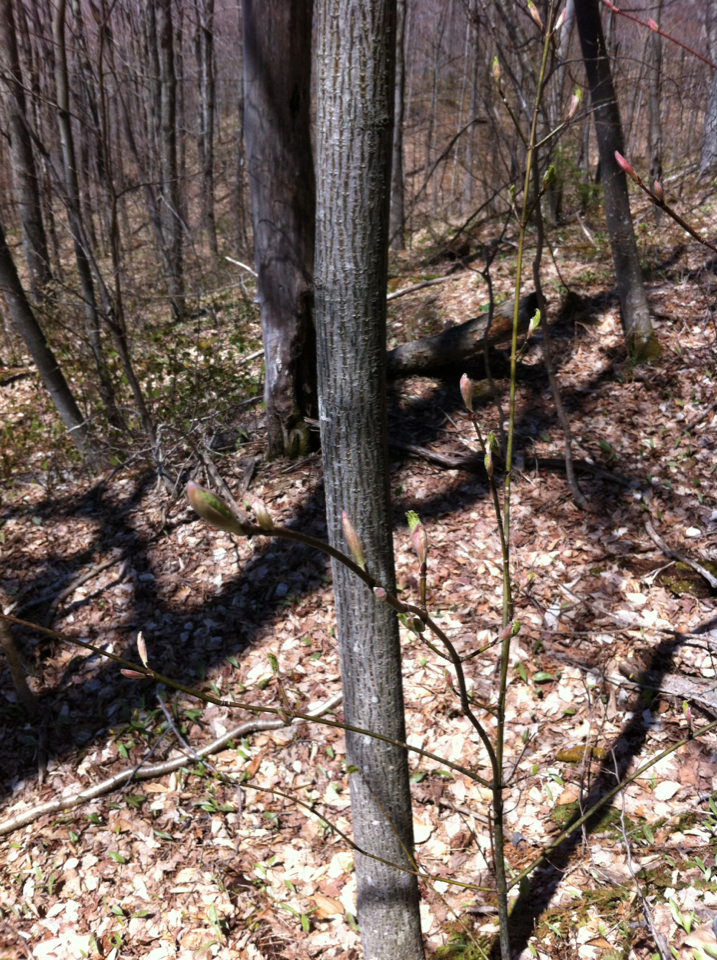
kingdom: Plantae
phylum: Tracheophyta
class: Magnoliopsida
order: Sapindales
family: Sapindaceae
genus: Acer
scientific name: Acer pensylvanicum
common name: Moosewood
